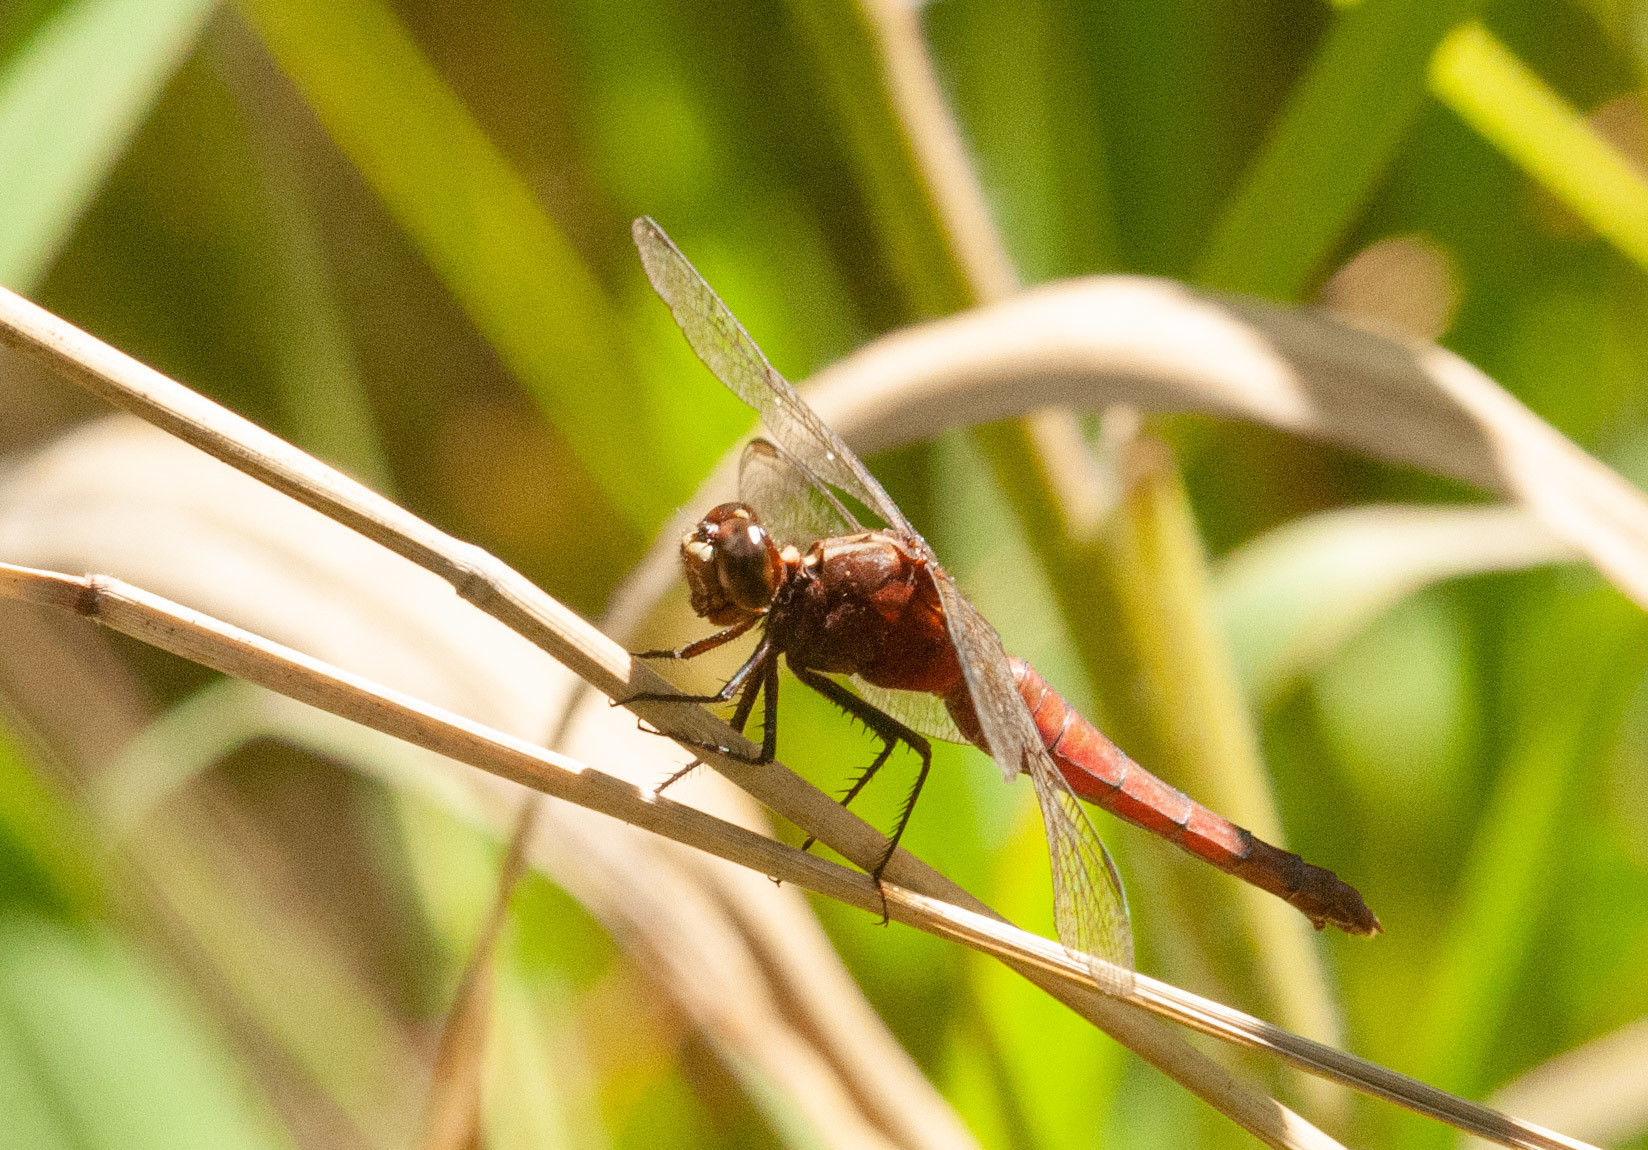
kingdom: Animalia
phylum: Arthropoda
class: Insecta
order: Odonata
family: Libellulidae
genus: Rhodothemis
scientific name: Rhodothemis lieftincki
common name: Red arrow
